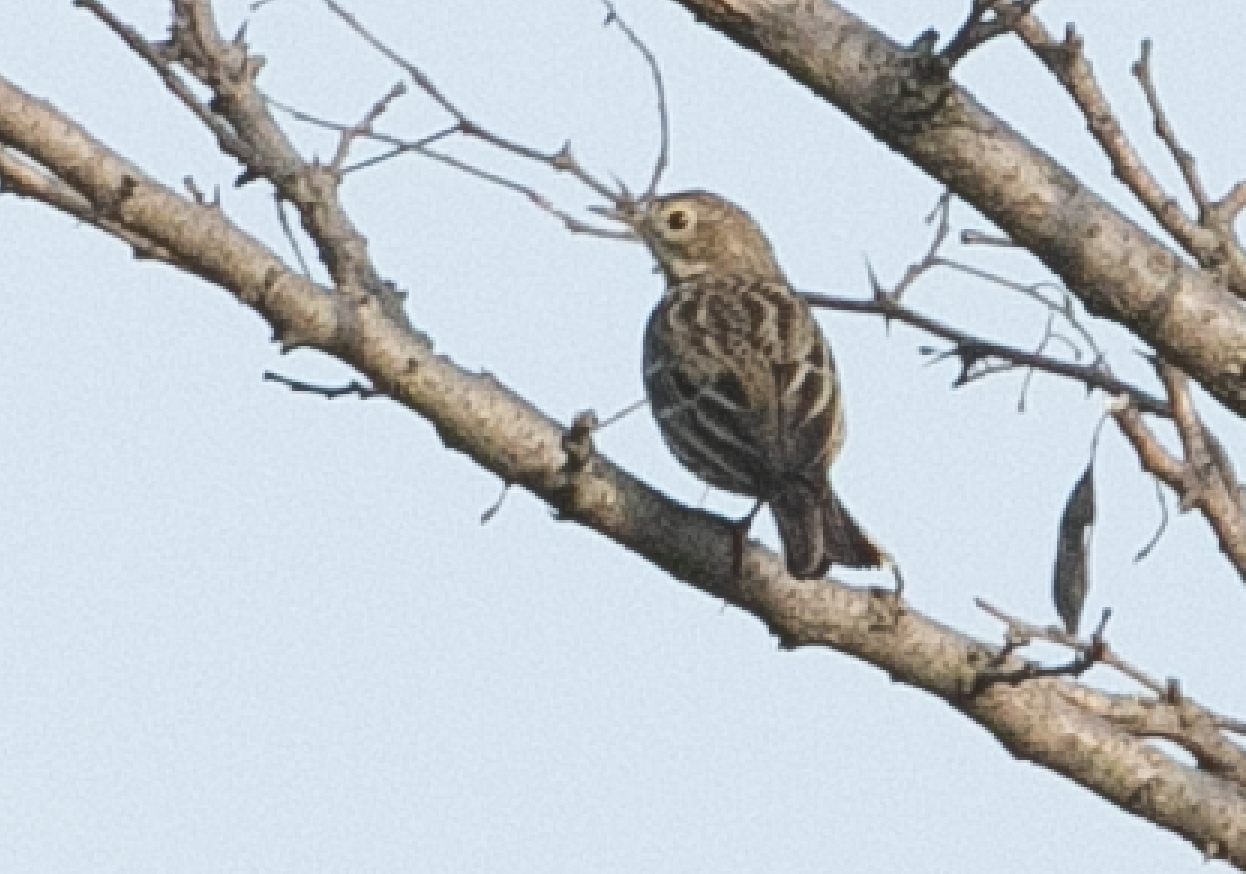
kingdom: Animalia
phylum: Chordata
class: Aves
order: Passeriformes
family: Motacillidae
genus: Anthus
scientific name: Anthus pratensis
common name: Meadow pipit
